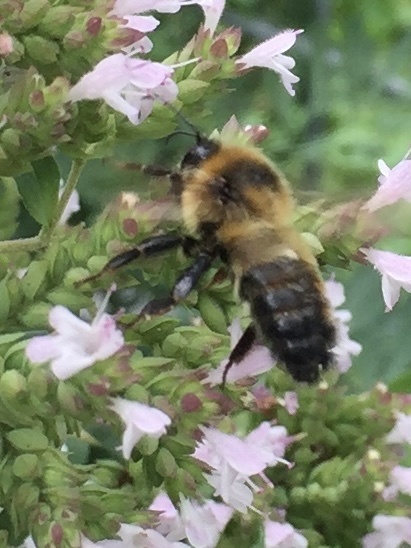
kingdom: Animalia
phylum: Arthropoda
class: Insecta
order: Hymenoptera
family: Apidae
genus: Bombus
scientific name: Bombus rufocinctus
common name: Red-belted bumble bee
